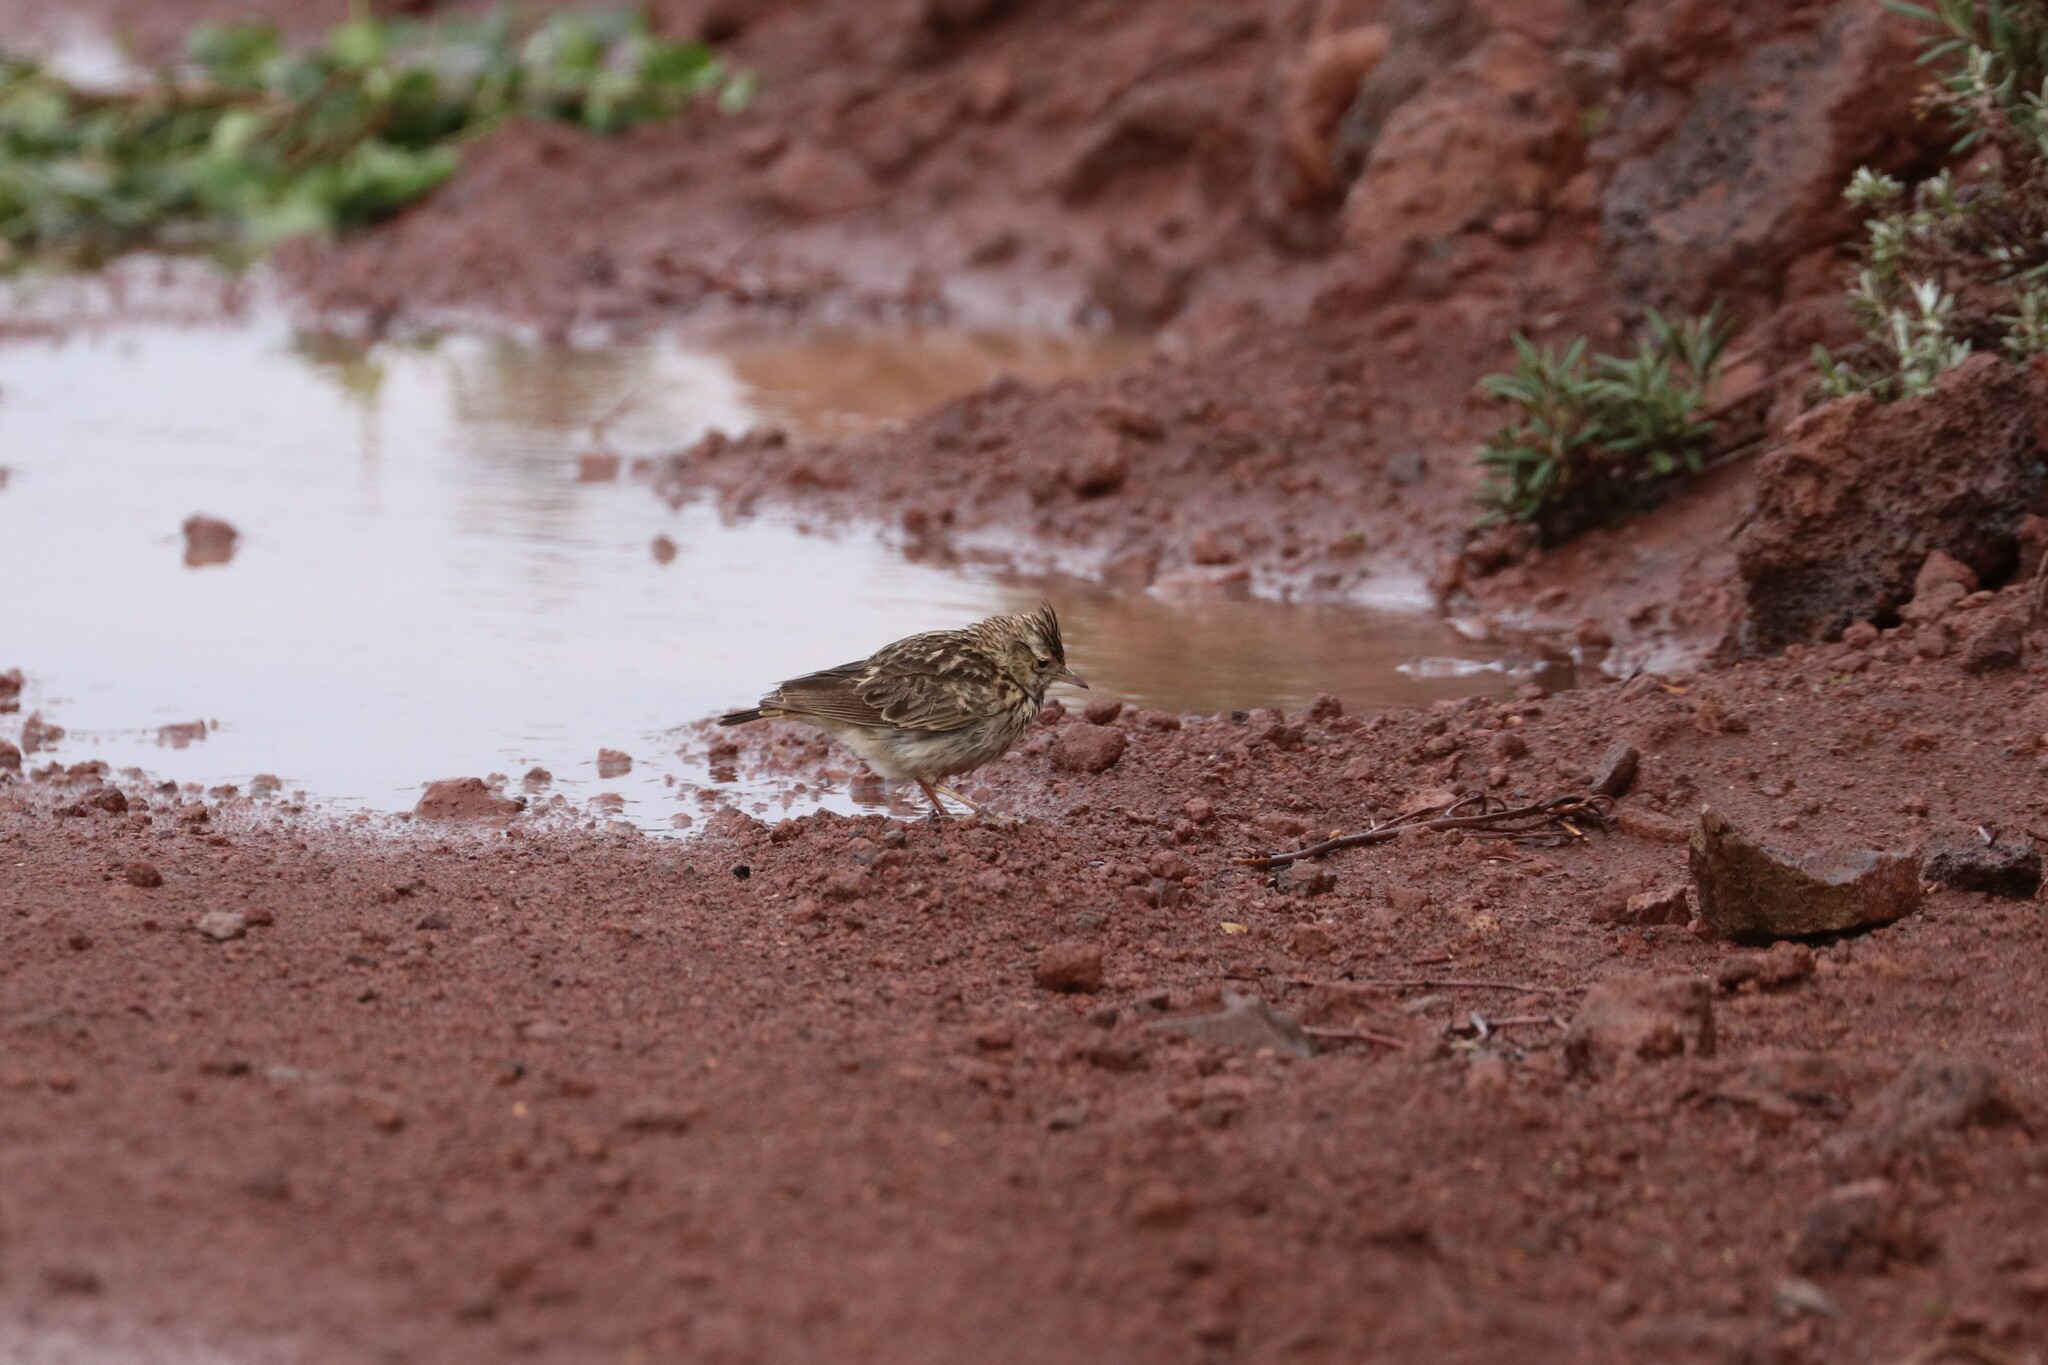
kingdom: Animalia
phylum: Chordata
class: Aves
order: Passeriformes
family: Alaudidae
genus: Galerida
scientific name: Galerida theklae
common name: Thekla lark
